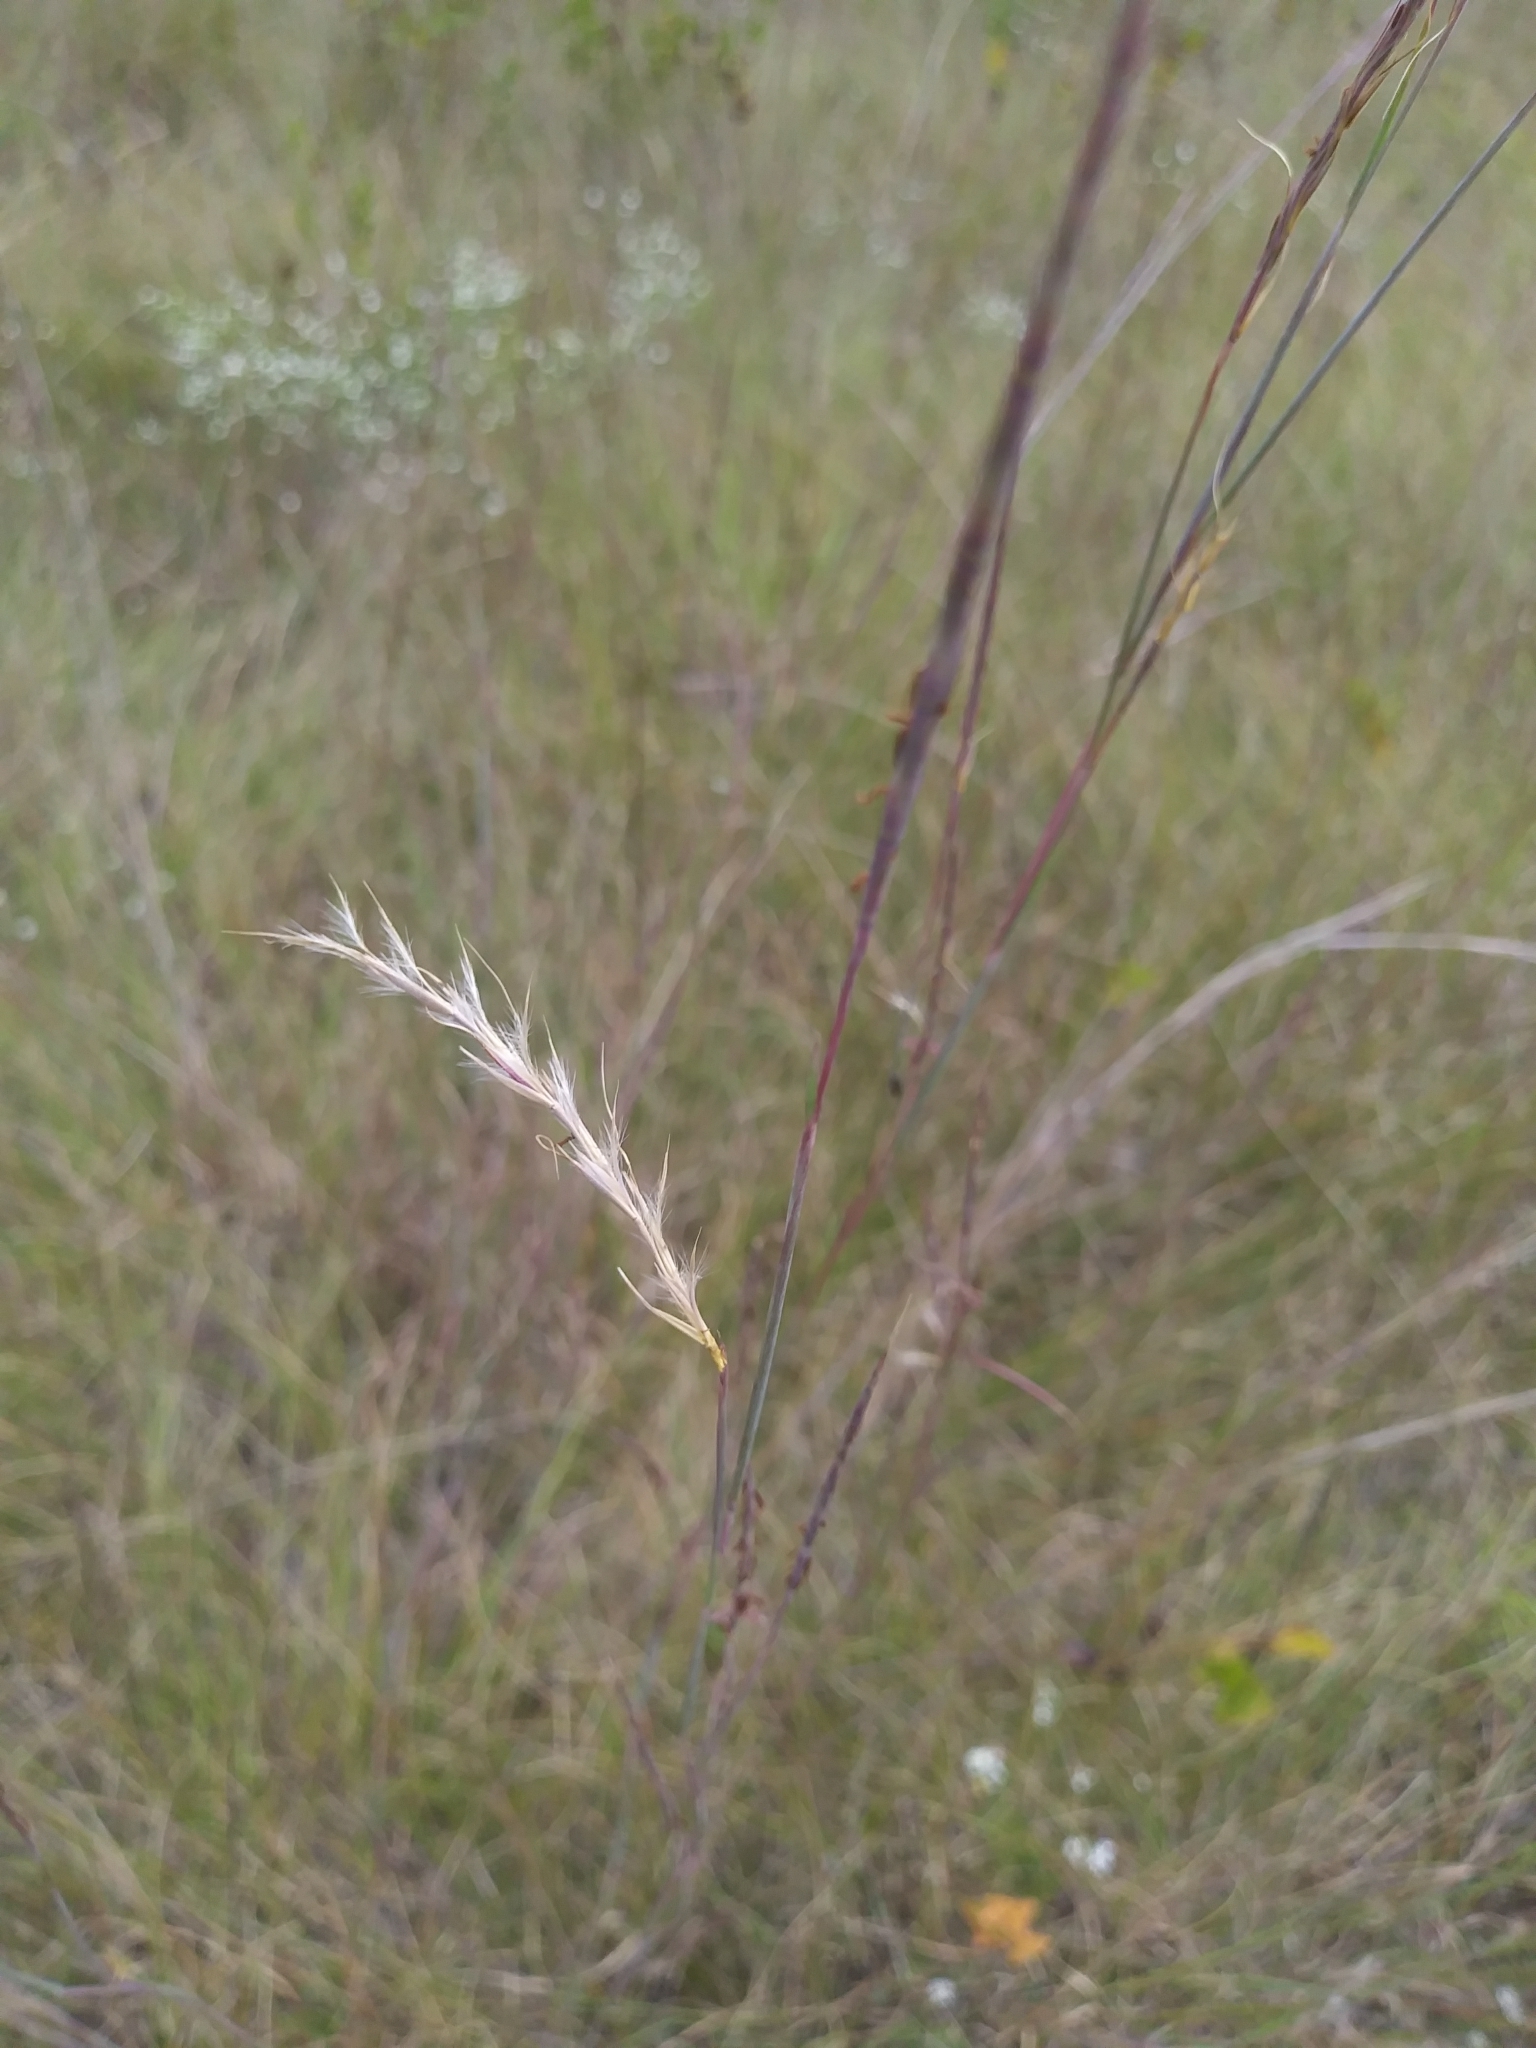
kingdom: Plantae
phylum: Tracheophyta
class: Liliopsida
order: Poales
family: Poaceae
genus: Schizachyrium
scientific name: Schizachyrium scoparium
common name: Little bluestem
